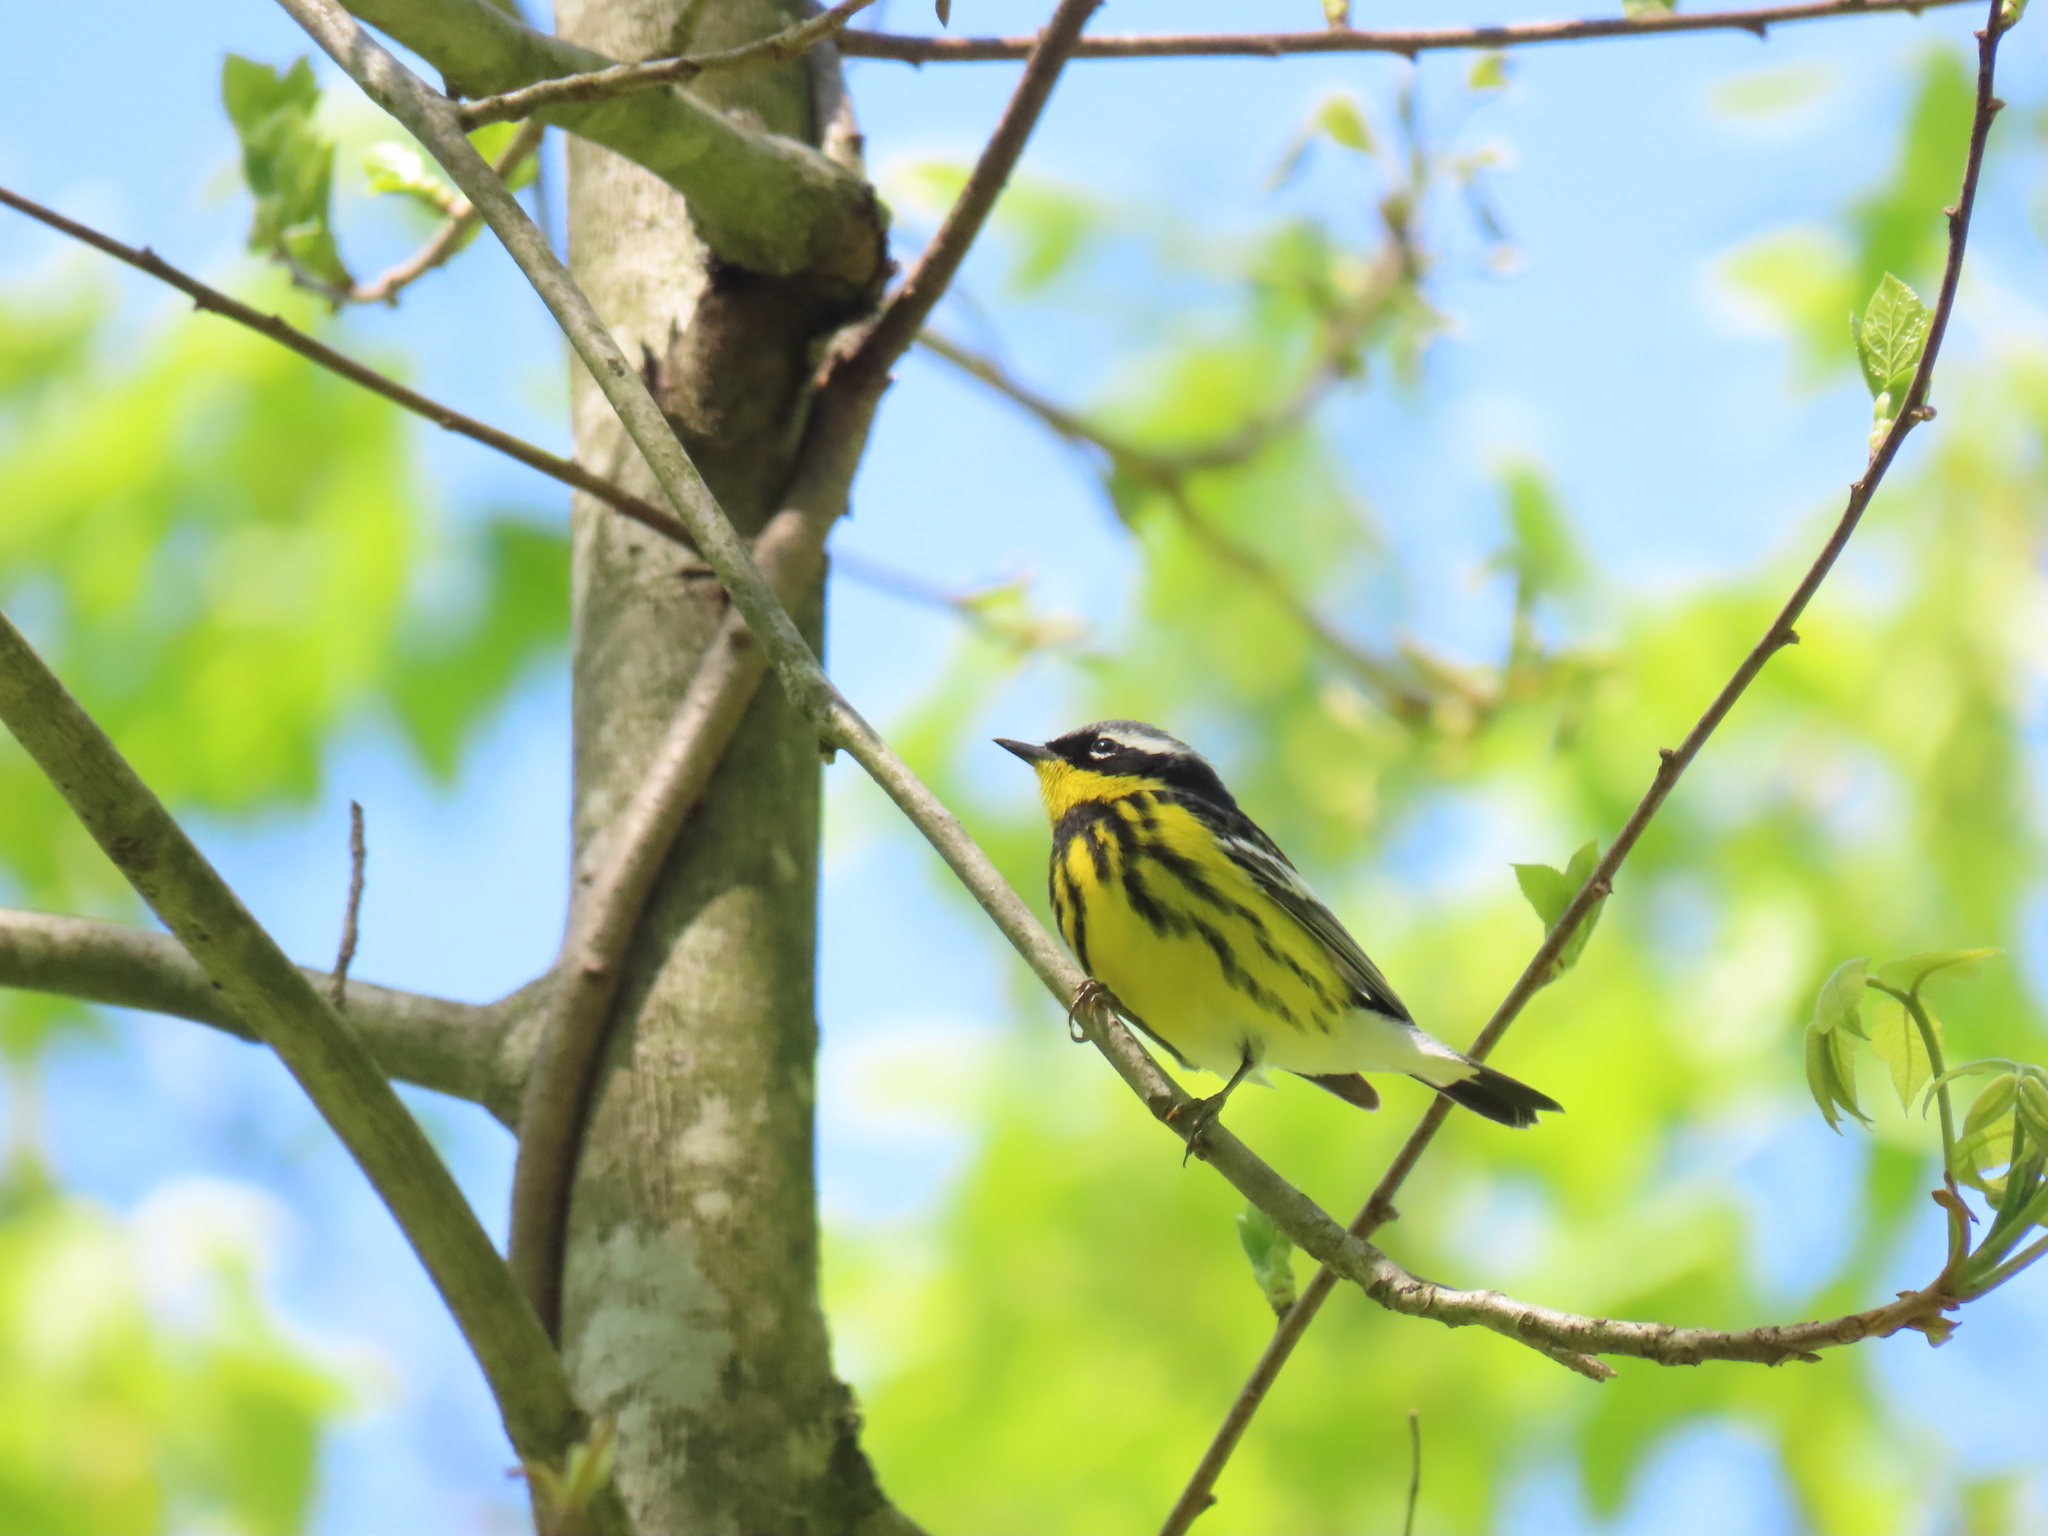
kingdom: Animalia
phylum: Chordata
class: Aves
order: Passeriformes
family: Parulidae
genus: Setophaga
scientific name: Setophaga magnolia
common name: Magnolia warbler
